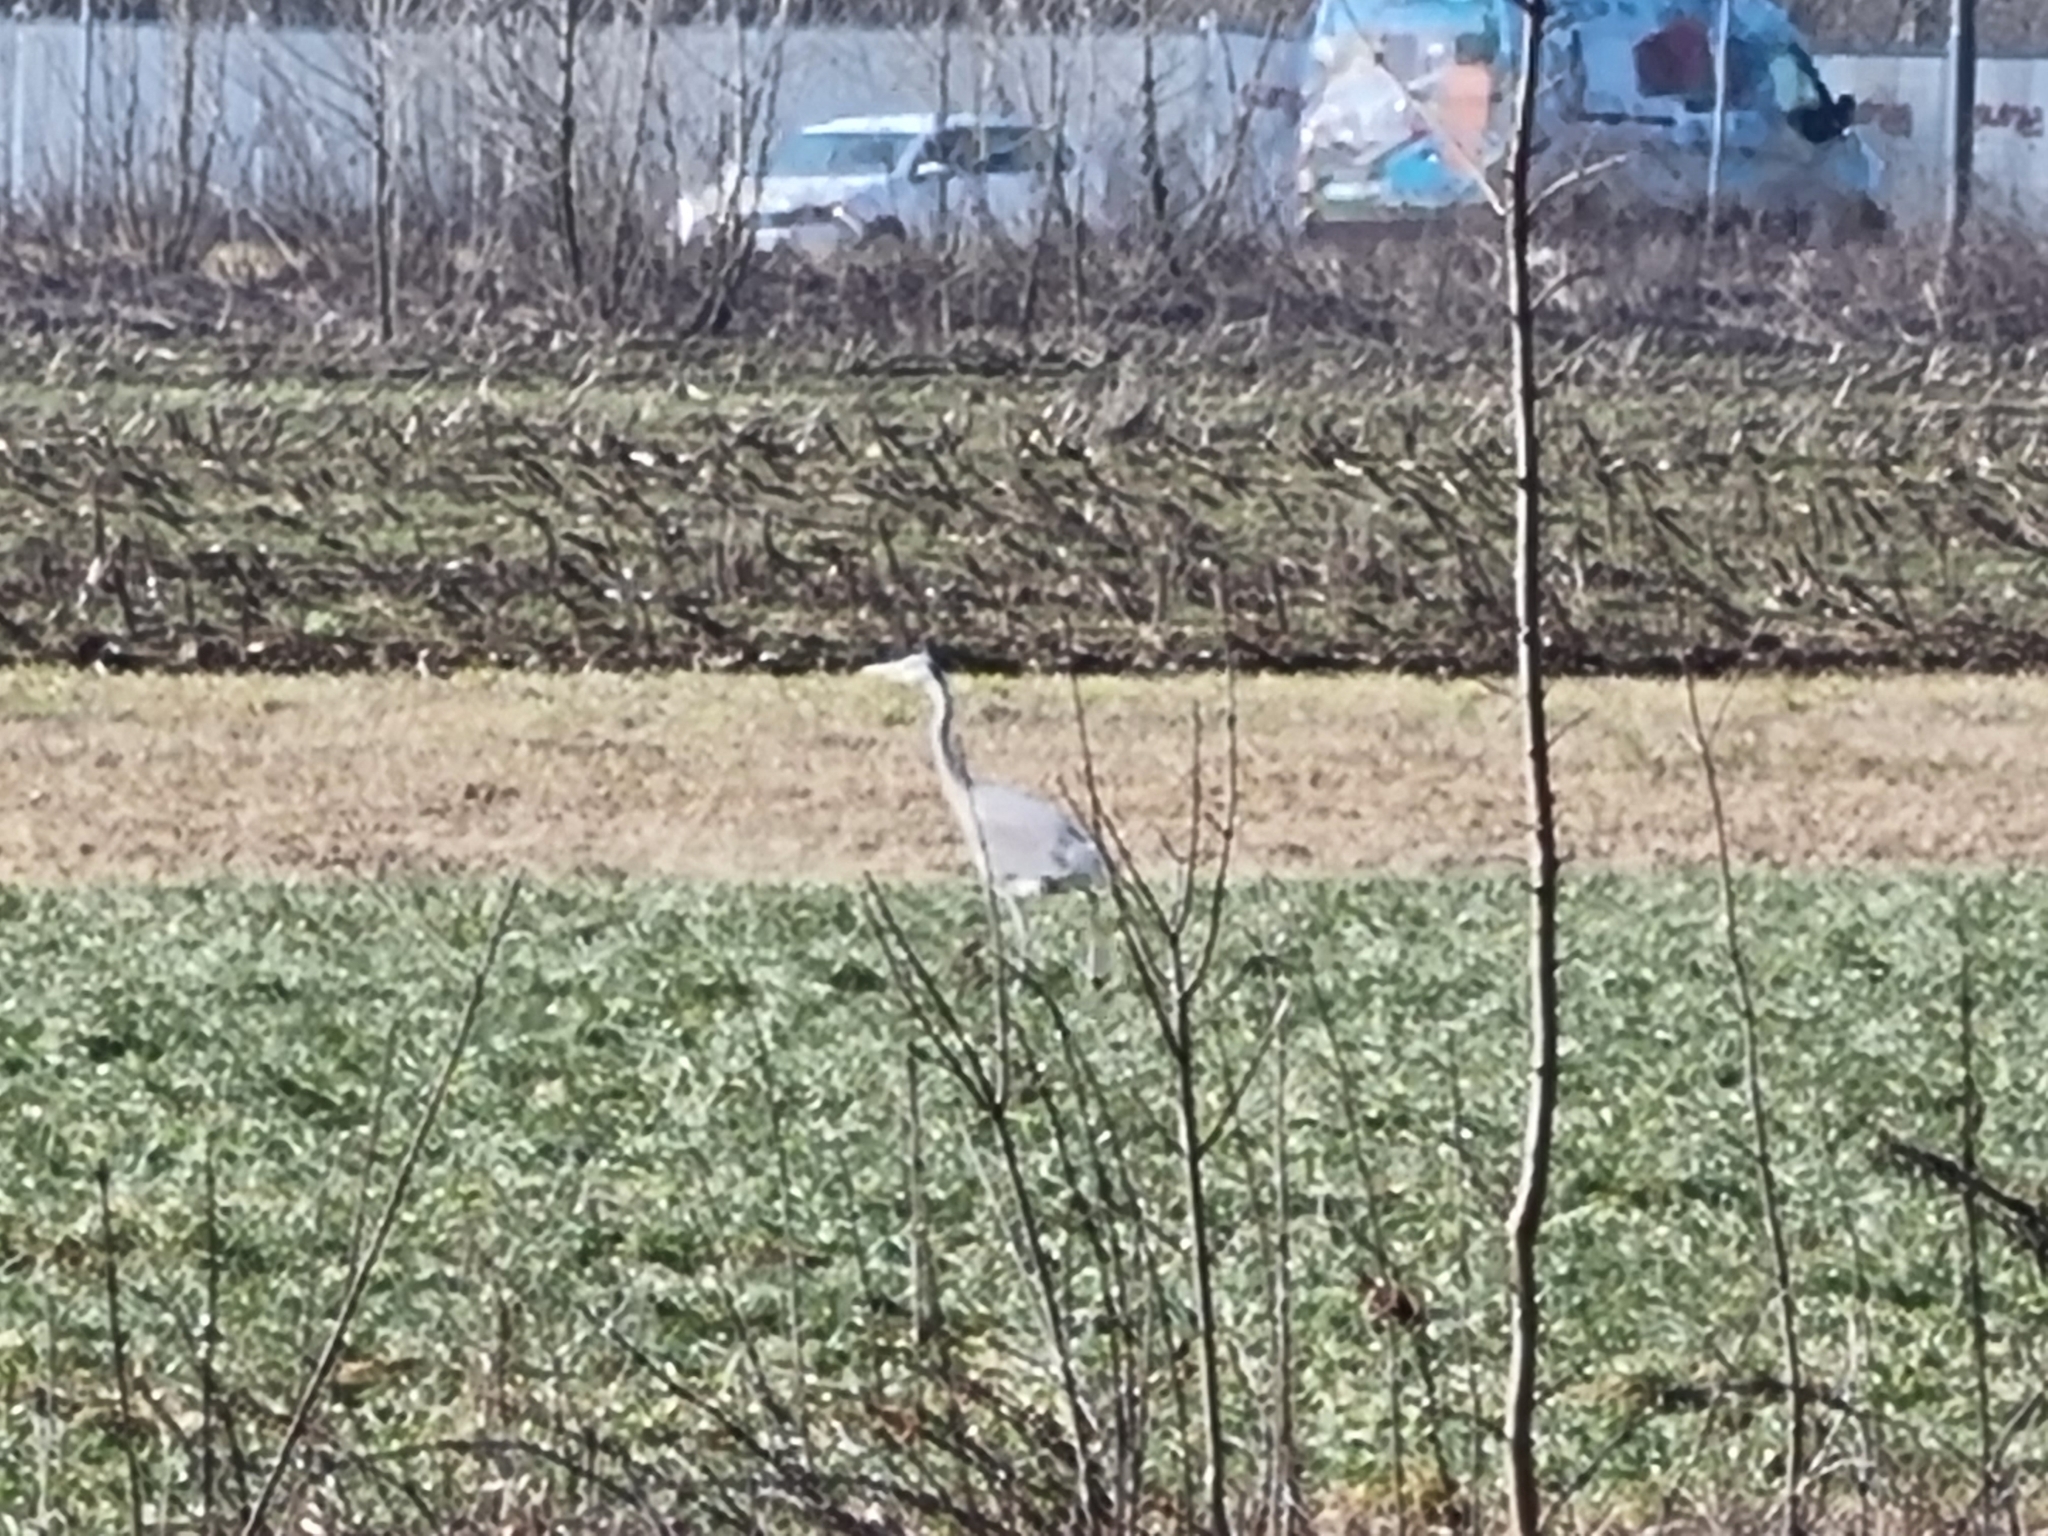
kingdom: Animalia
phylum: Chordata
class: Aves
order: Pelecaniformes
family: Ardeidae
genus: Ardea
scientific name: Ardea cinerea
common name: Grey heron
